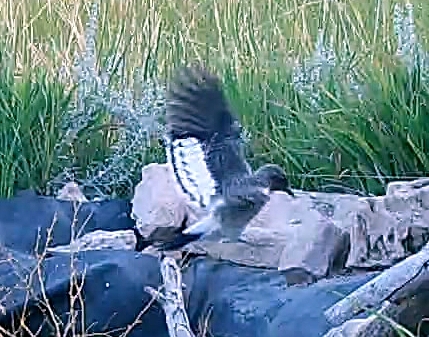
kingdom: Animalia
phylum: Chordata
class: Aves
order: Piciformes
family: Picidae
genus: Melanerpes
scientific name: Melanerpes erythrocephalus
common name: Red-headed woodpecker
